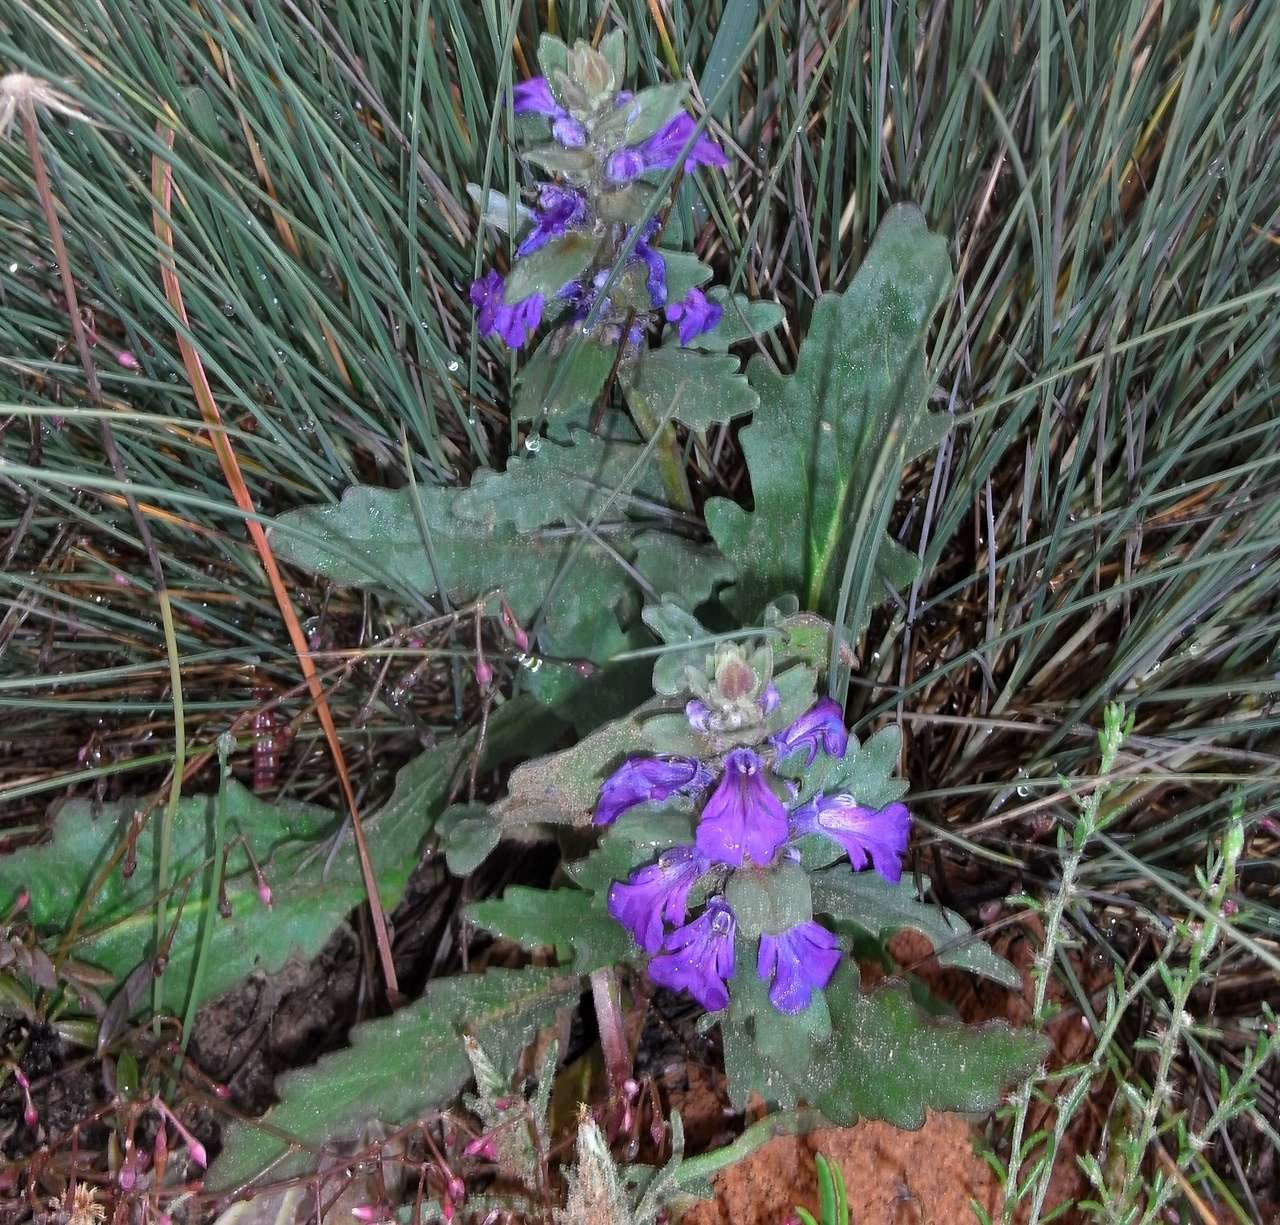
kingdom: Plantae
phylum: Tracheophyta
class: Magnoliopsida
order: Lamiales
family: Lamiaceae
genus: Ajuga
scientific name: Ajuga australis
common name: Australian bugle
